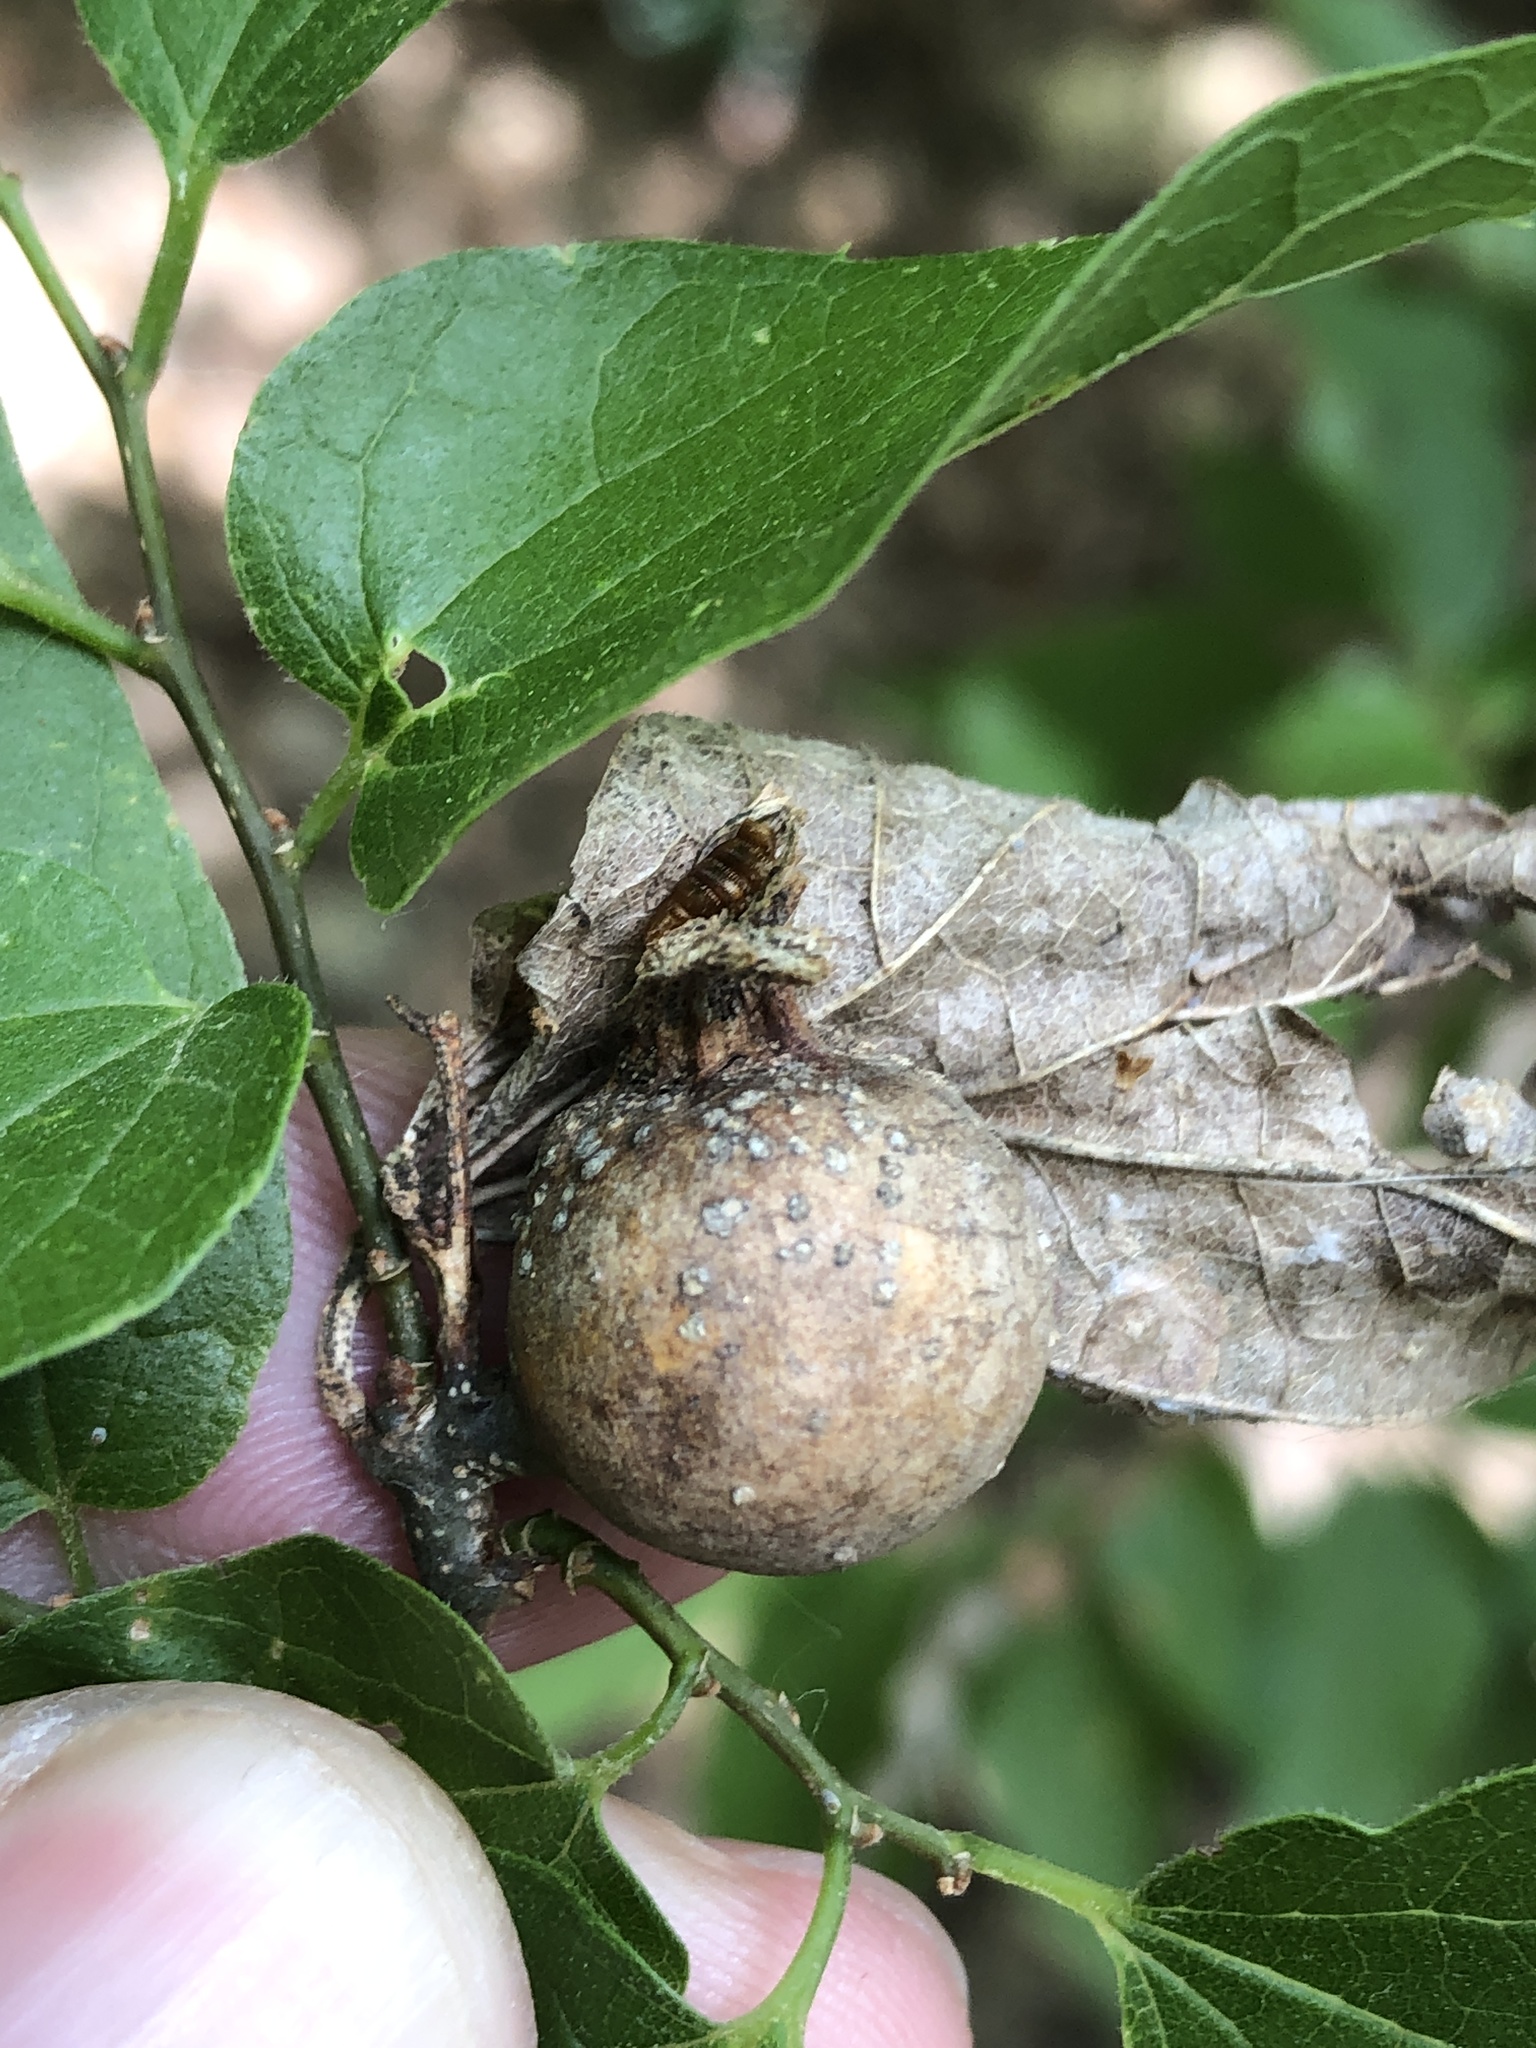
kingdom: Animalia
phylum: Arthropoda
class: Insecta
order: Hemiptera
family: Aphalaridae
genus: Pachypsylla
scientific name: Pachypsylla venusta
